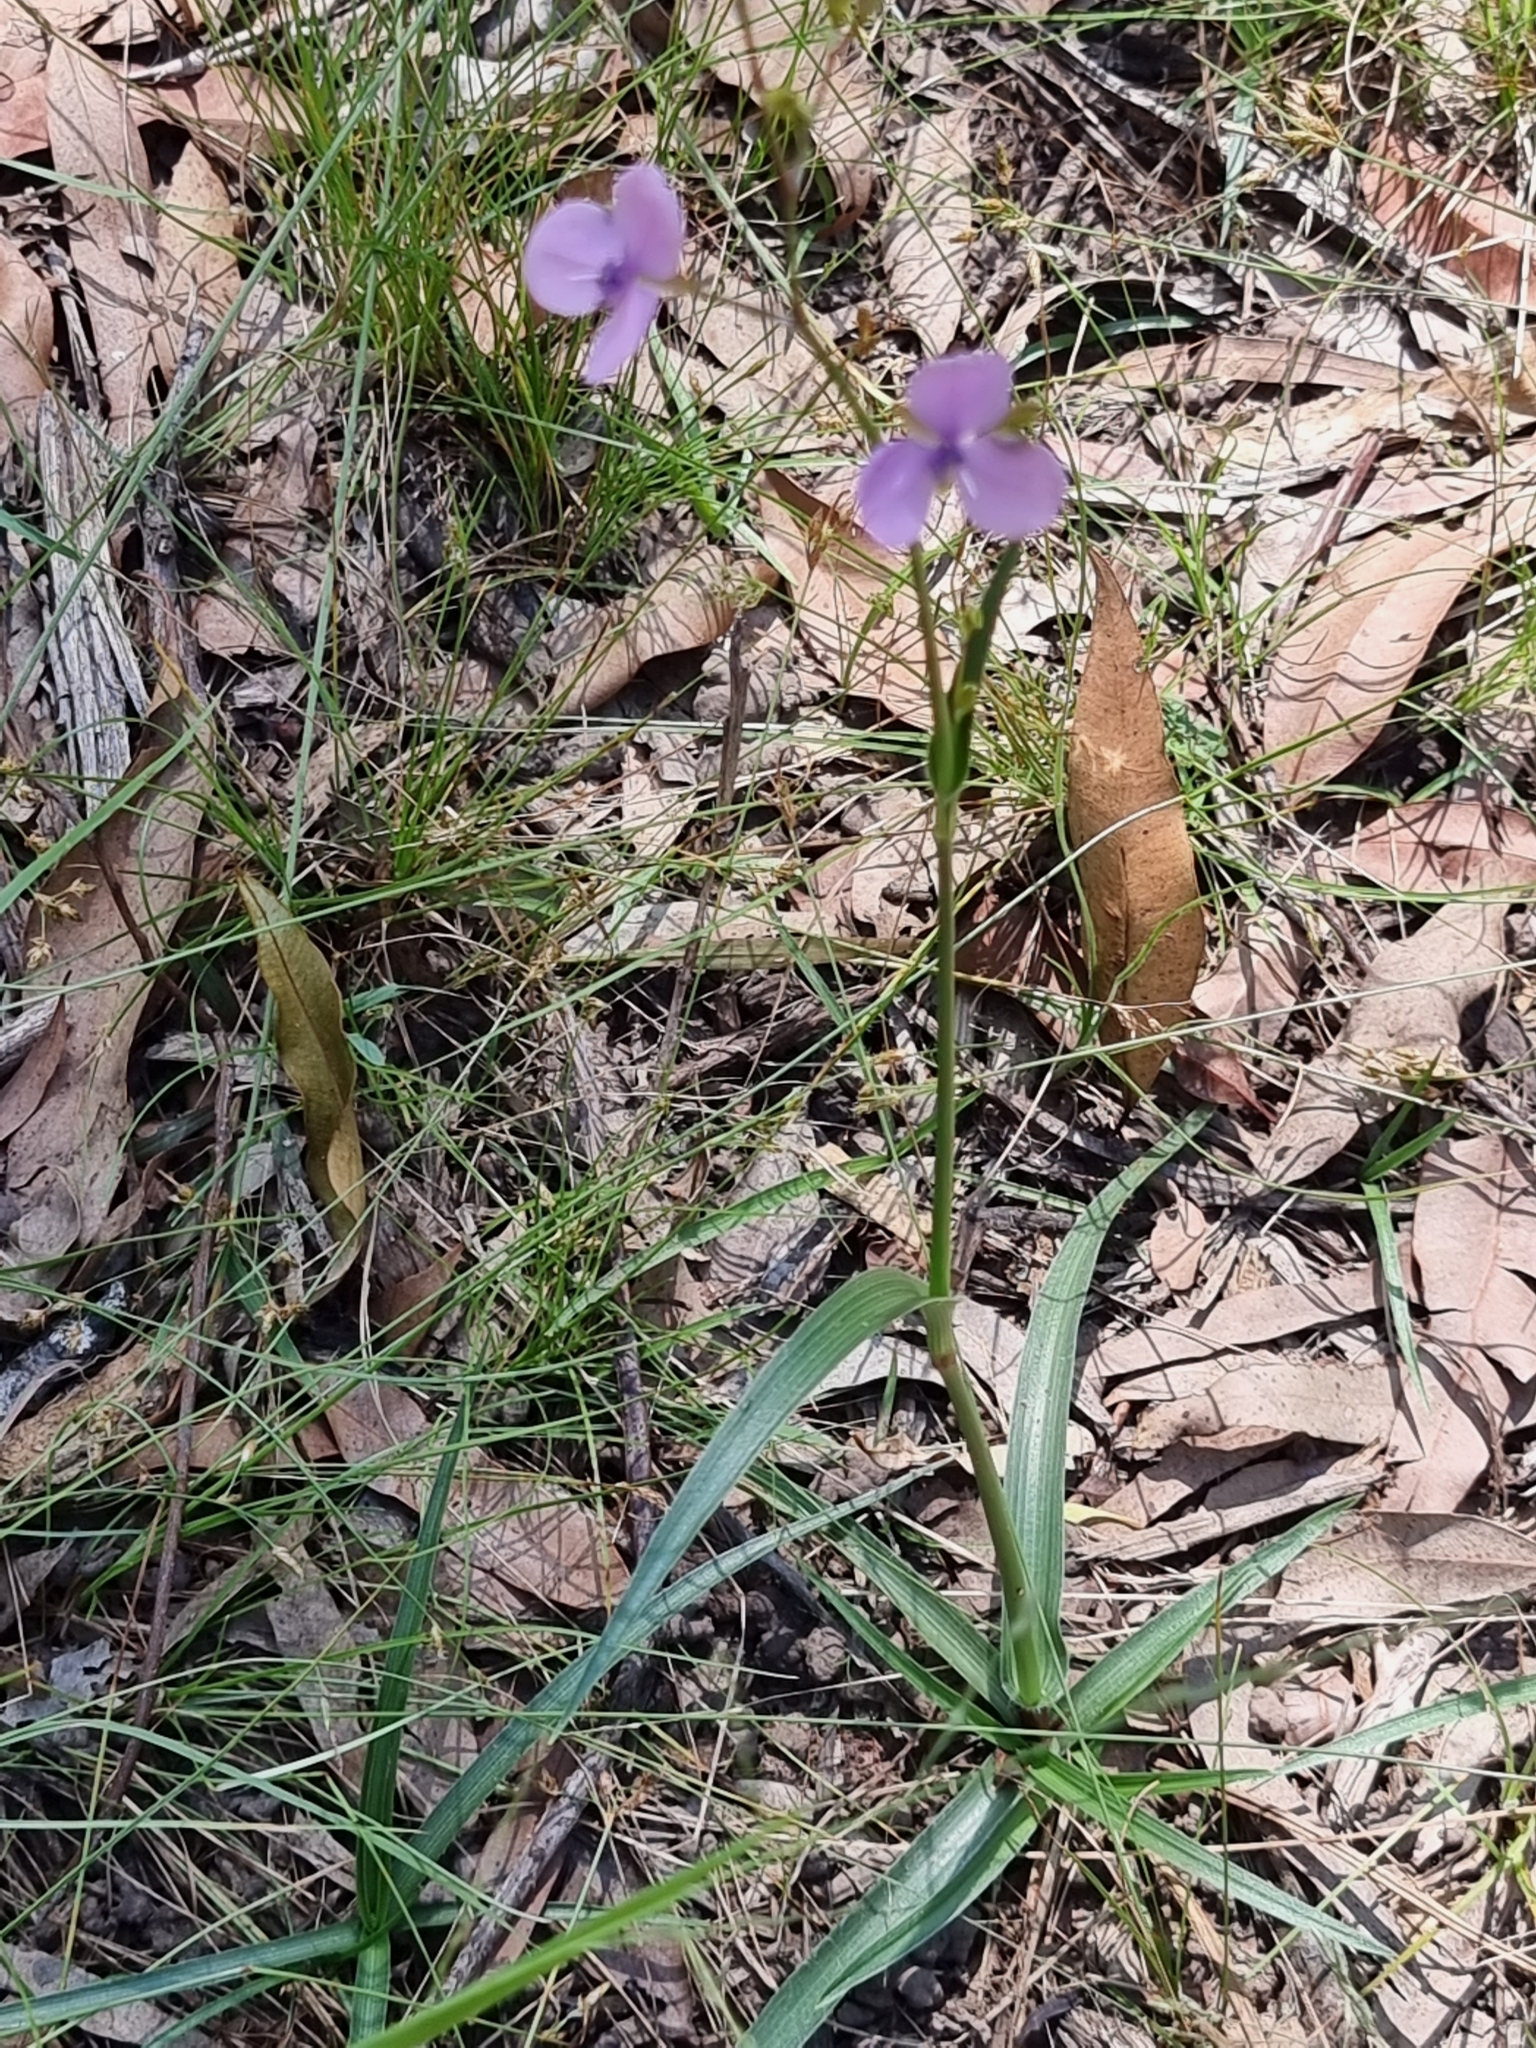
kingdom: Plantae
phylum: Tracheophyta
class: Liliopsida
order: Commelinales
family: Commelinaceae
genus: Murdannia
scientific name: Murdannia graminea
